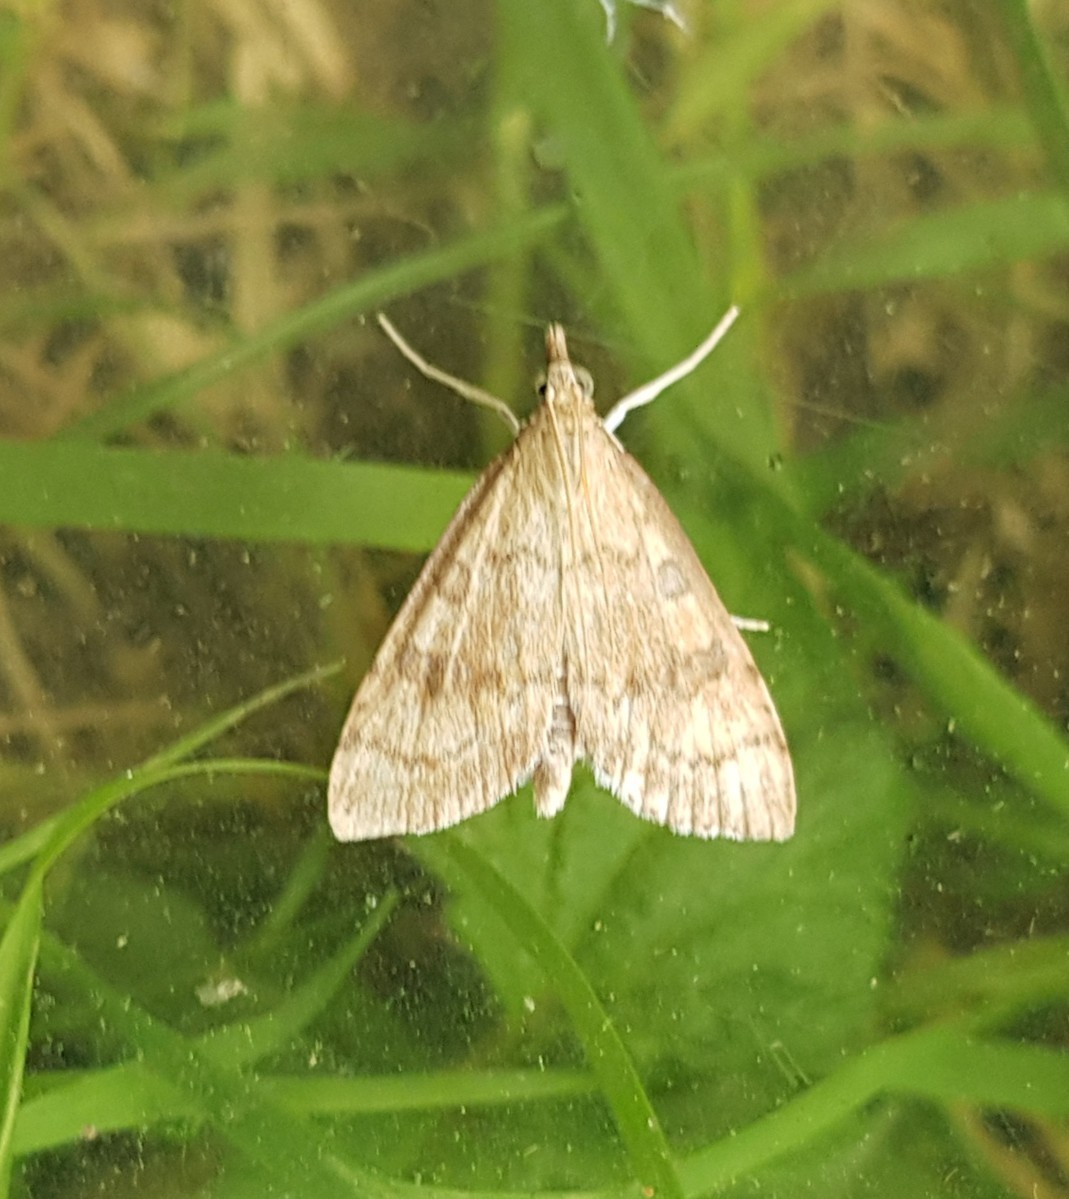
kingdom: Animalia
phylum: Arthropoda
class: Insecta
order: Lepidoptera
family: Crambidae
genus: Udea
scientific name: Udea fulvalis
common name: Fulvous pearl
